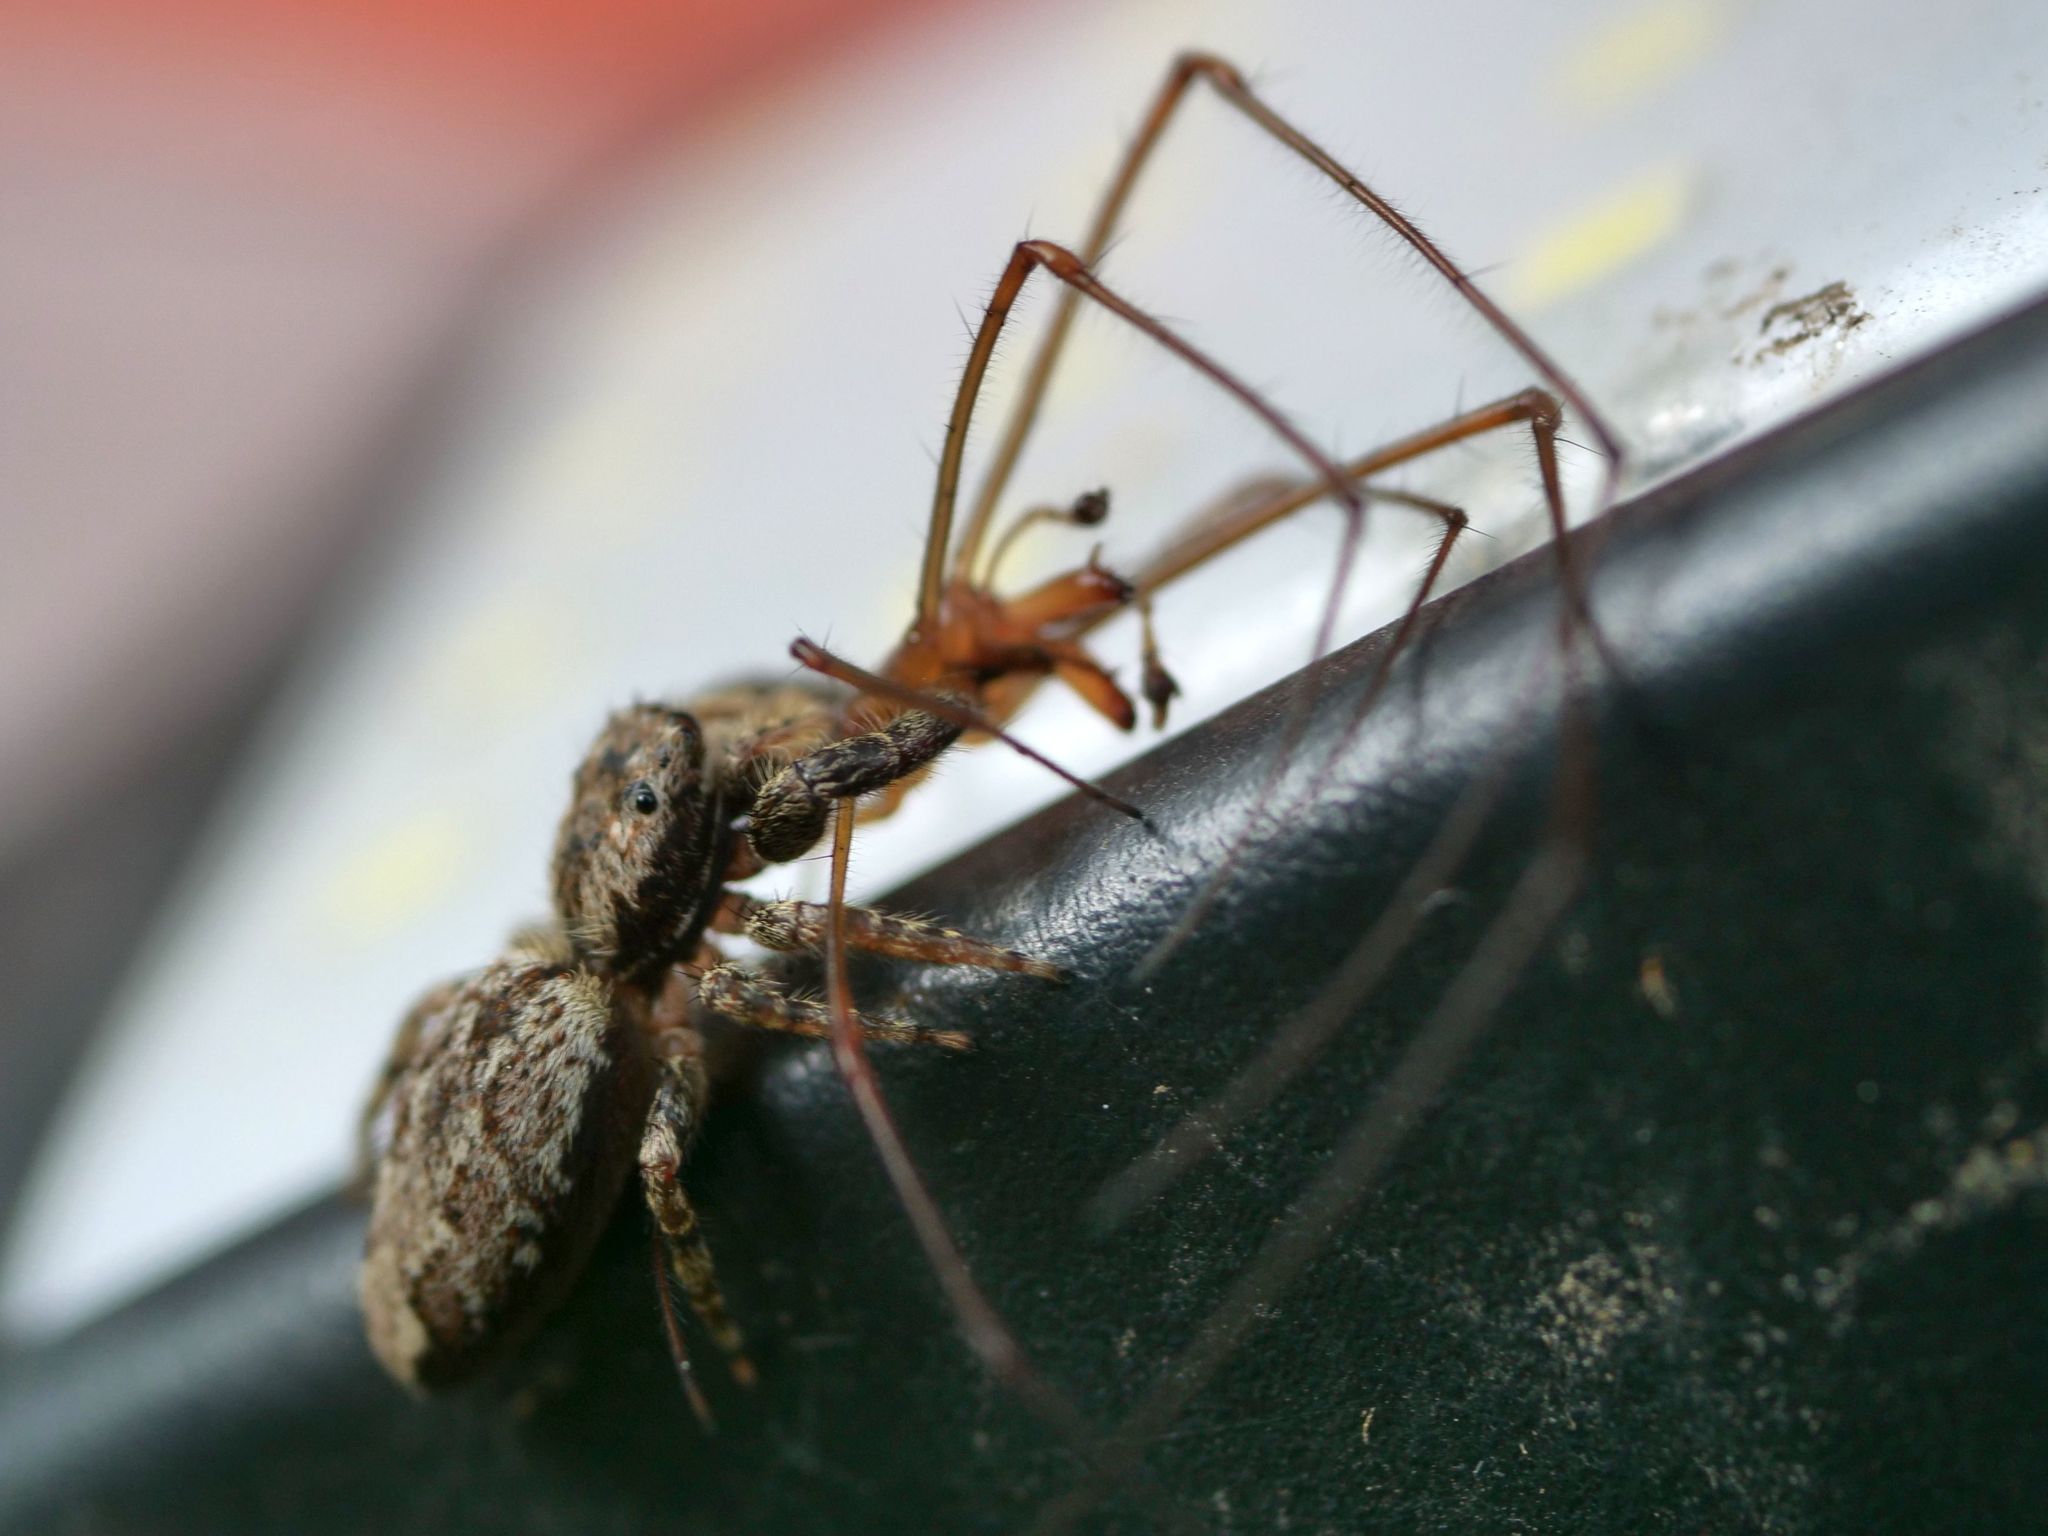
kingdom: Animalia
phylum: Arthropoda
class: Arachnida
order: Araneae
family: Salticidae
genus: Marpissa
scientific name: Marpissa muscosa
